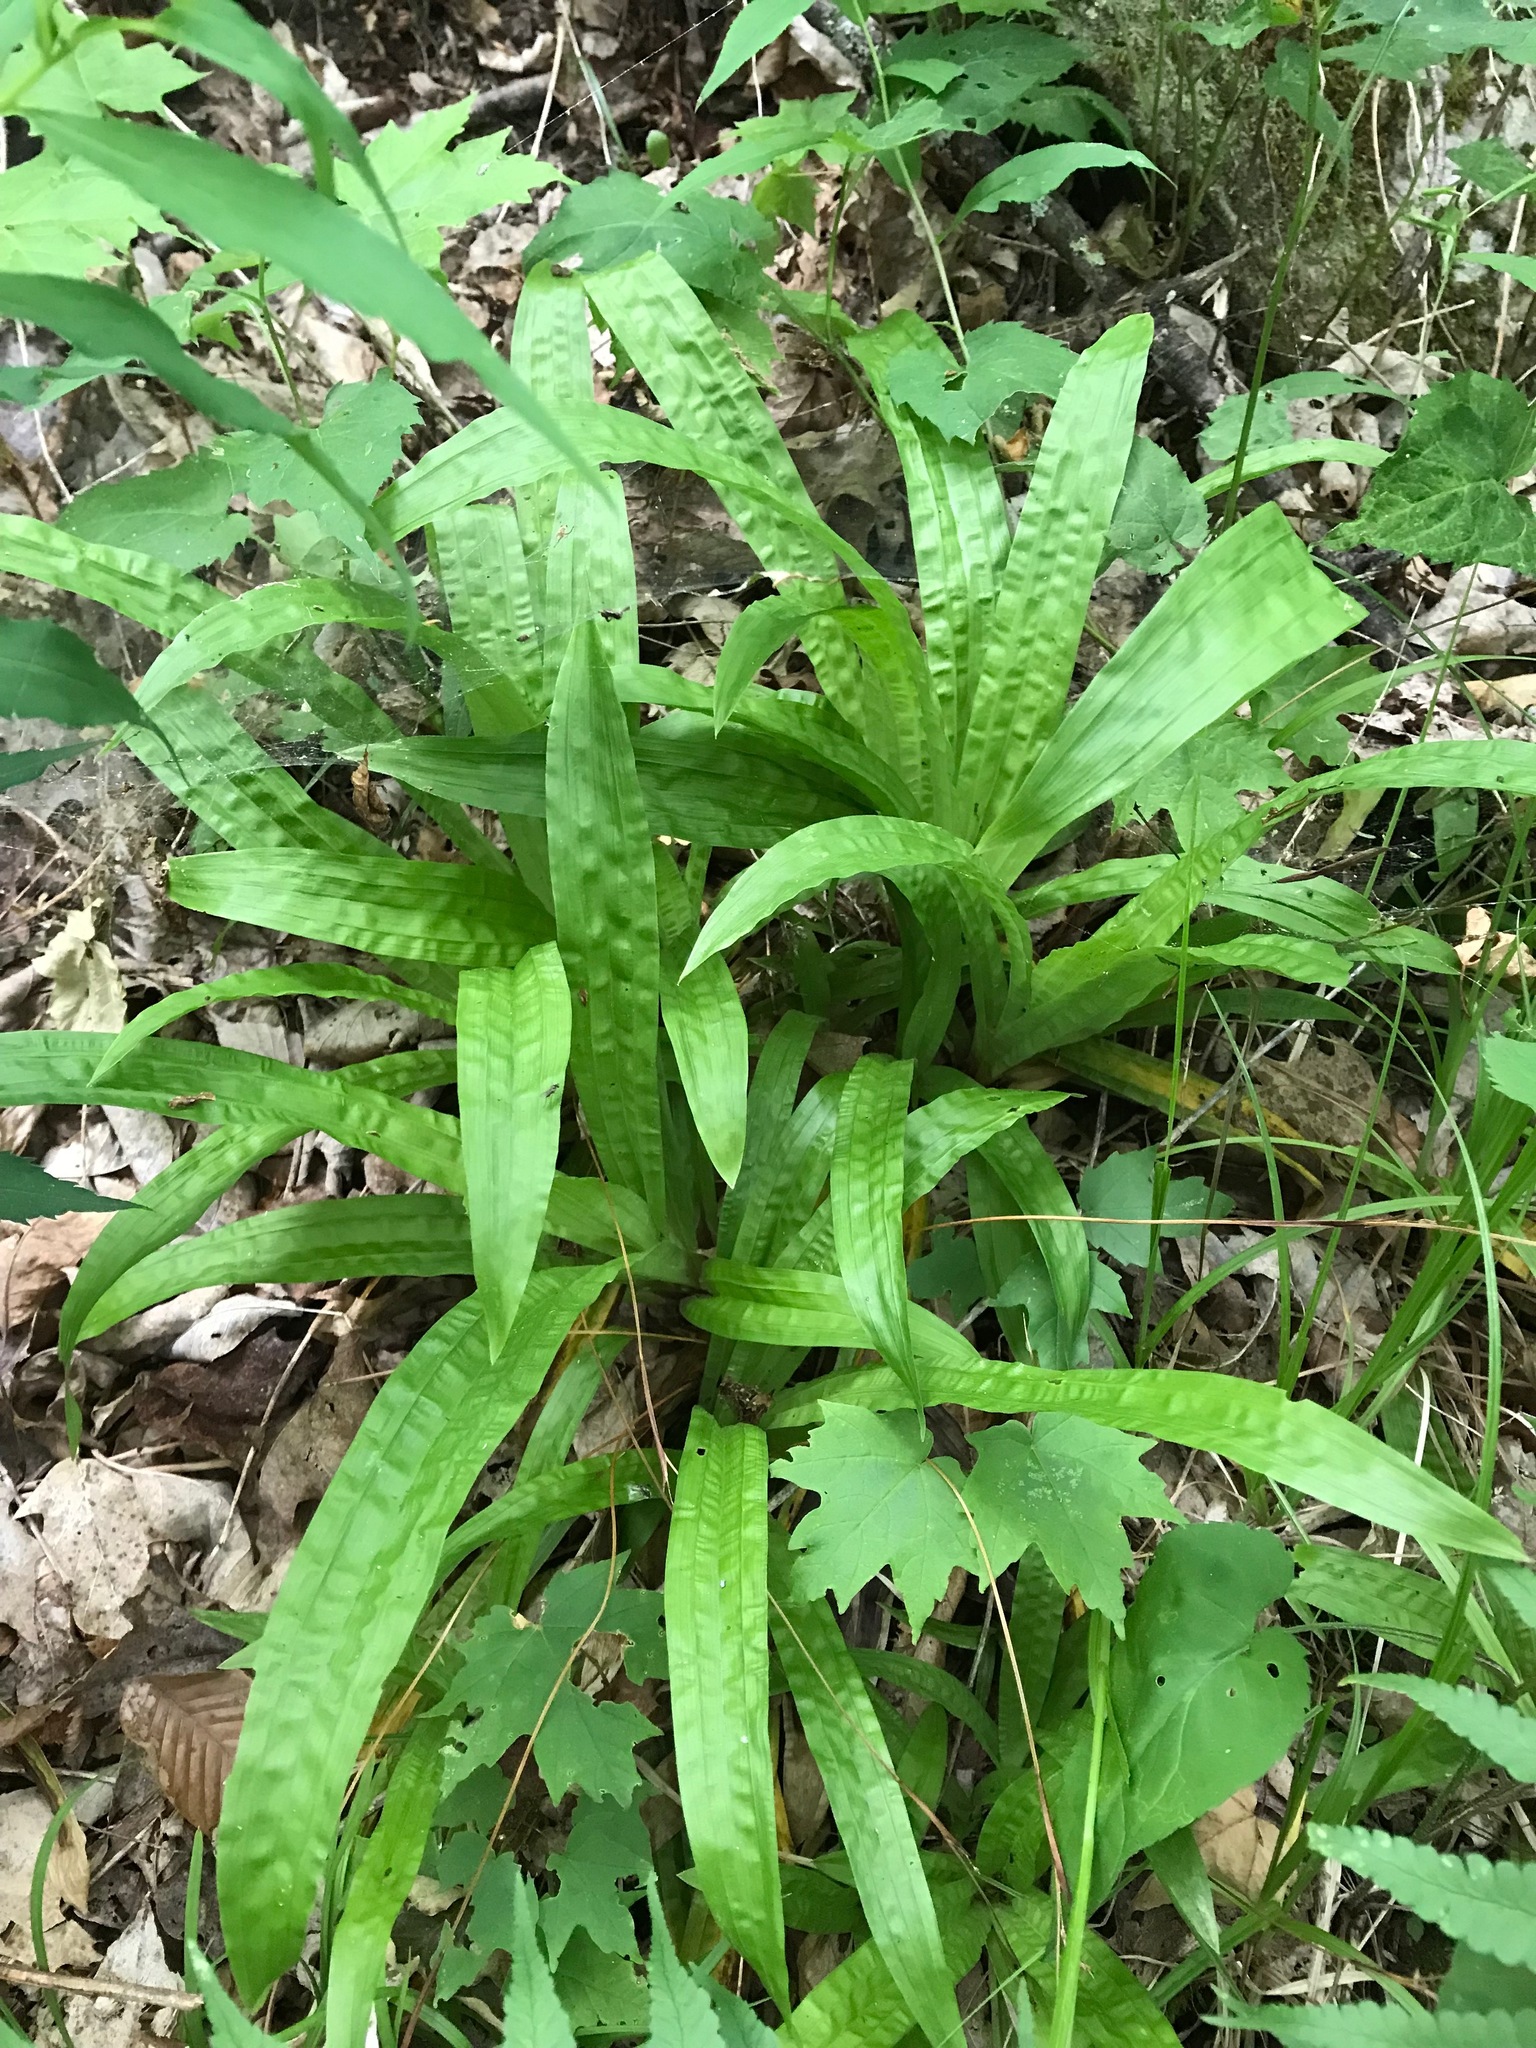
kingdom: Plantae
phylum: Tracheophyta
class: Liliopsida
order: Poales
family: Cyperaceae
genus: Carex
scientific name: Carex plantaginea
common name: Plantain-leaved sedge
